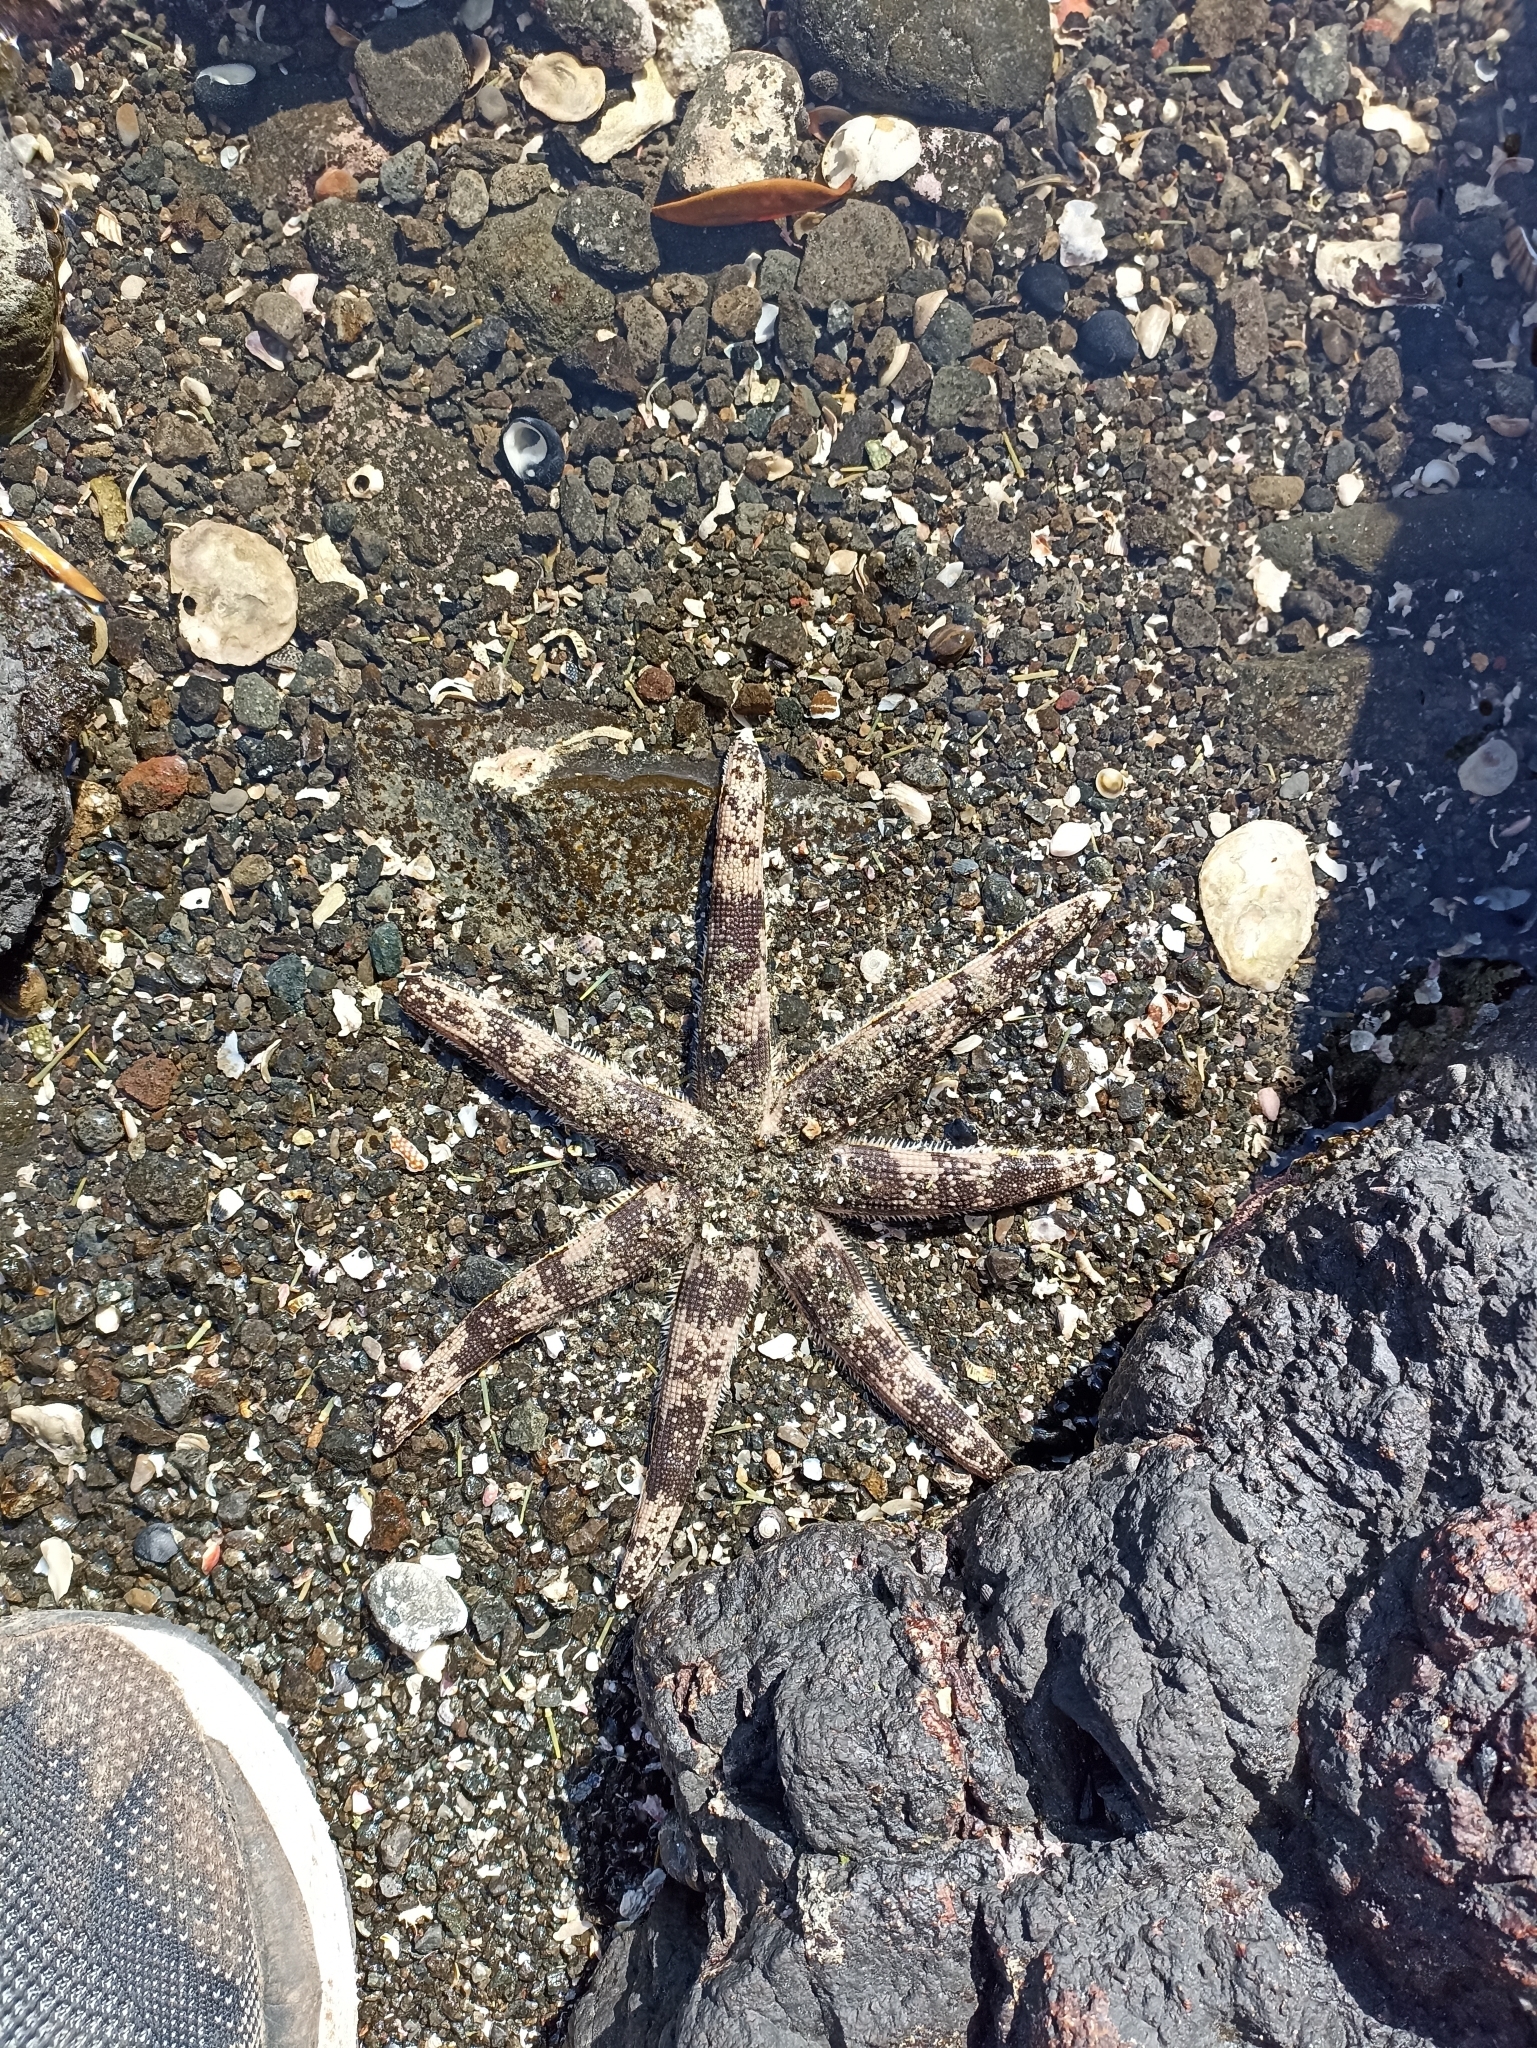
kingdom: Animalia
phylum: Echinodermata
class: Asteroidea
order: Paxillosida
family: Luidiidae
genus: Luidia
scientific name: Luidia australiae
